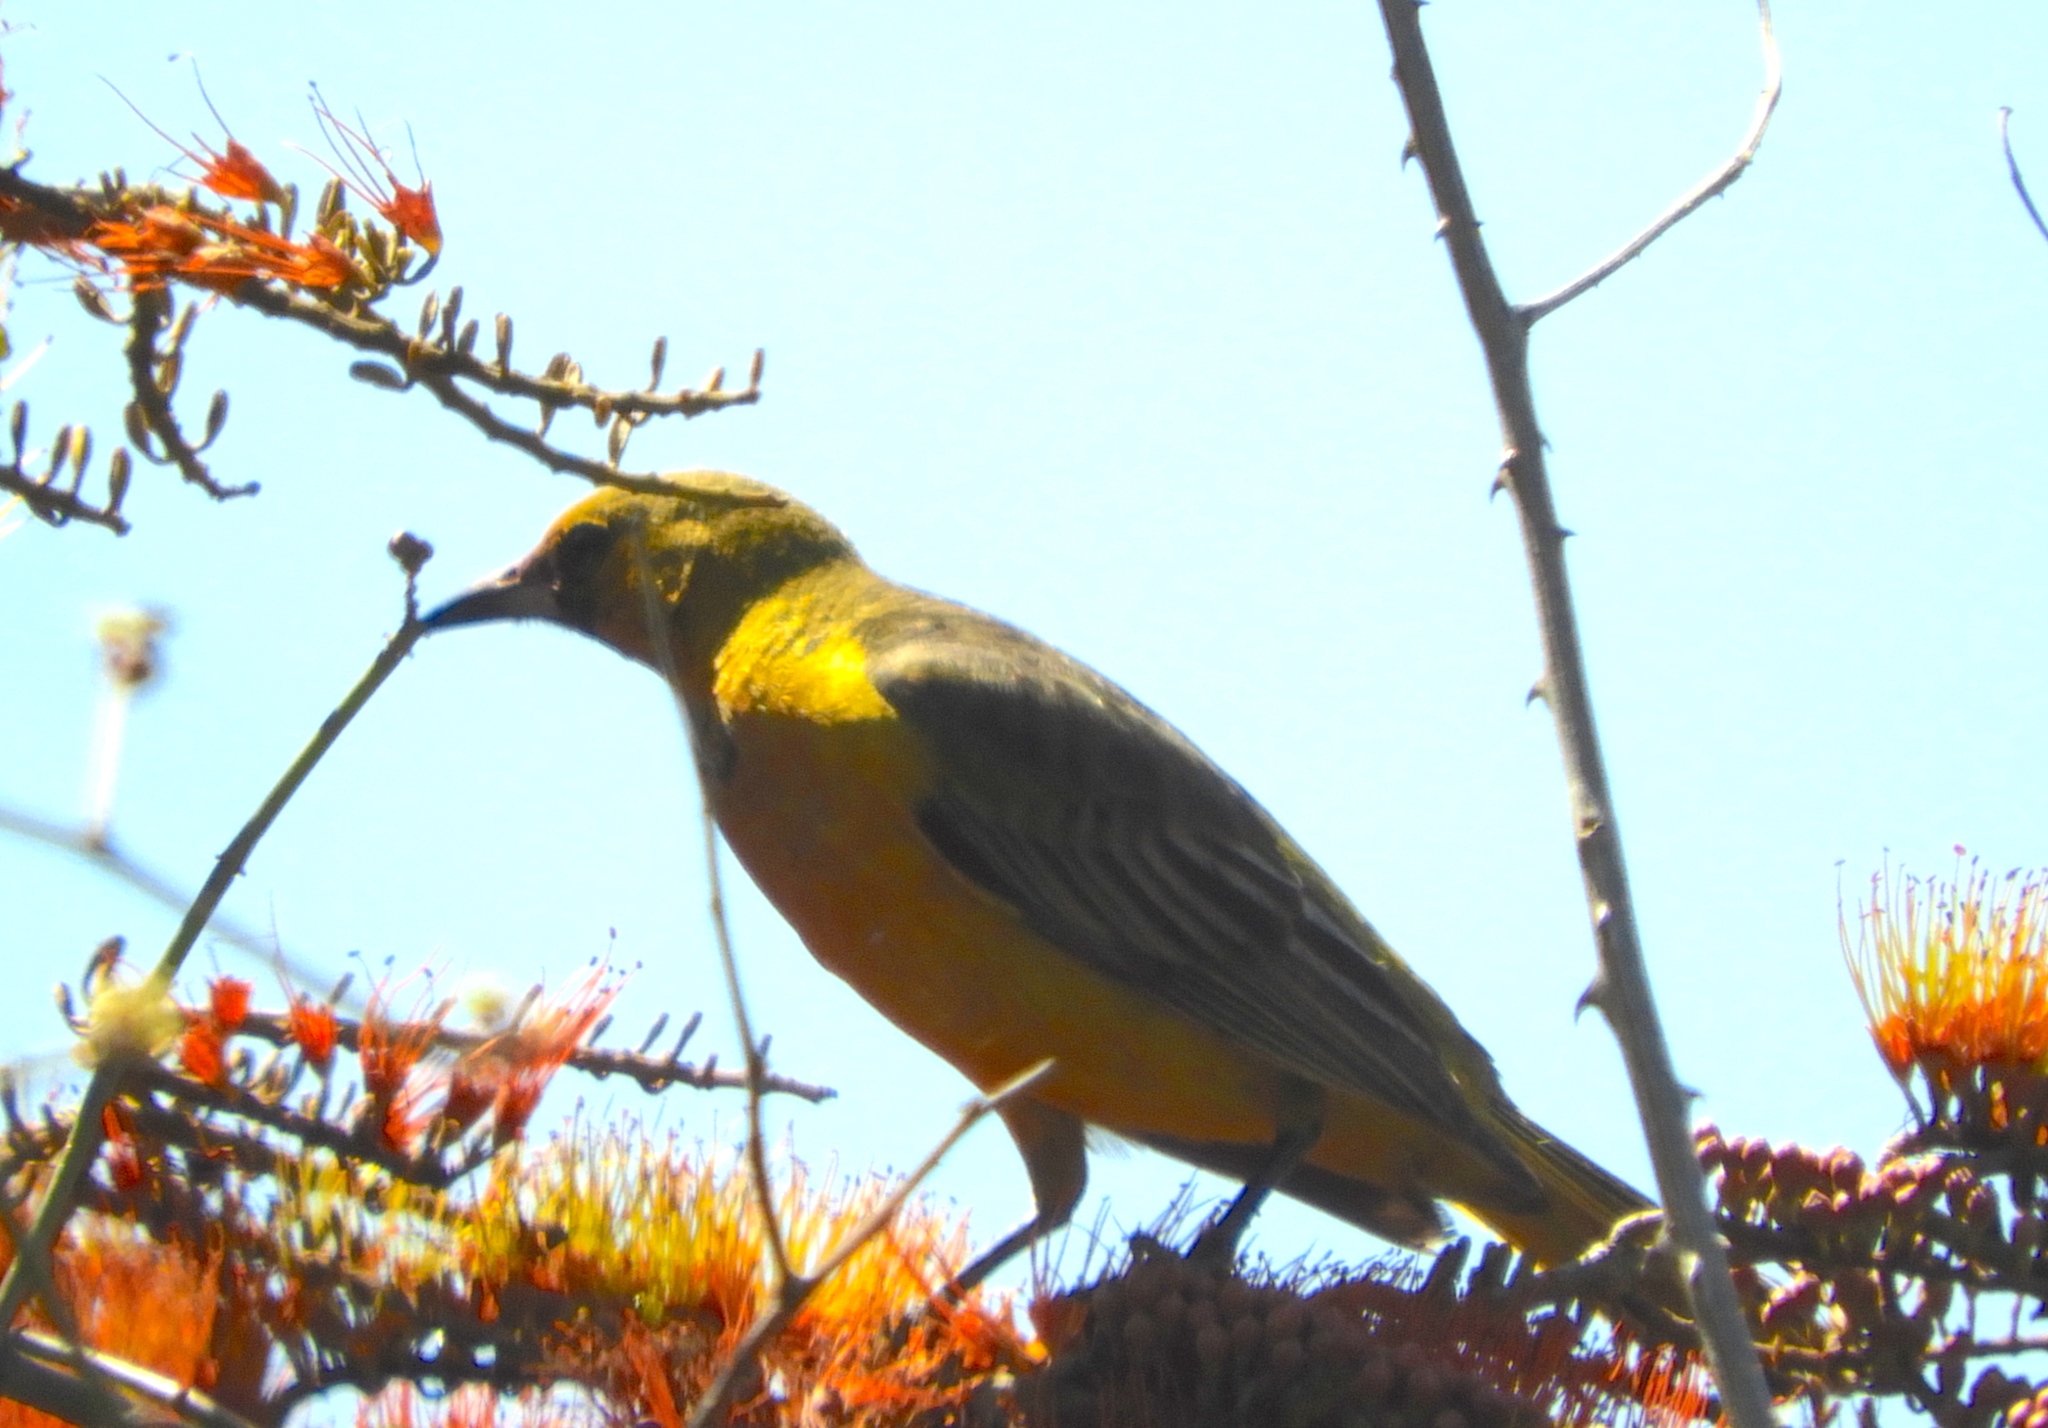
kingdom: Animalia
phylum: Chordata
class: Aves
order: Passeriformes
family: Icteridae
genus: Icterus
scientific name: Icterus
